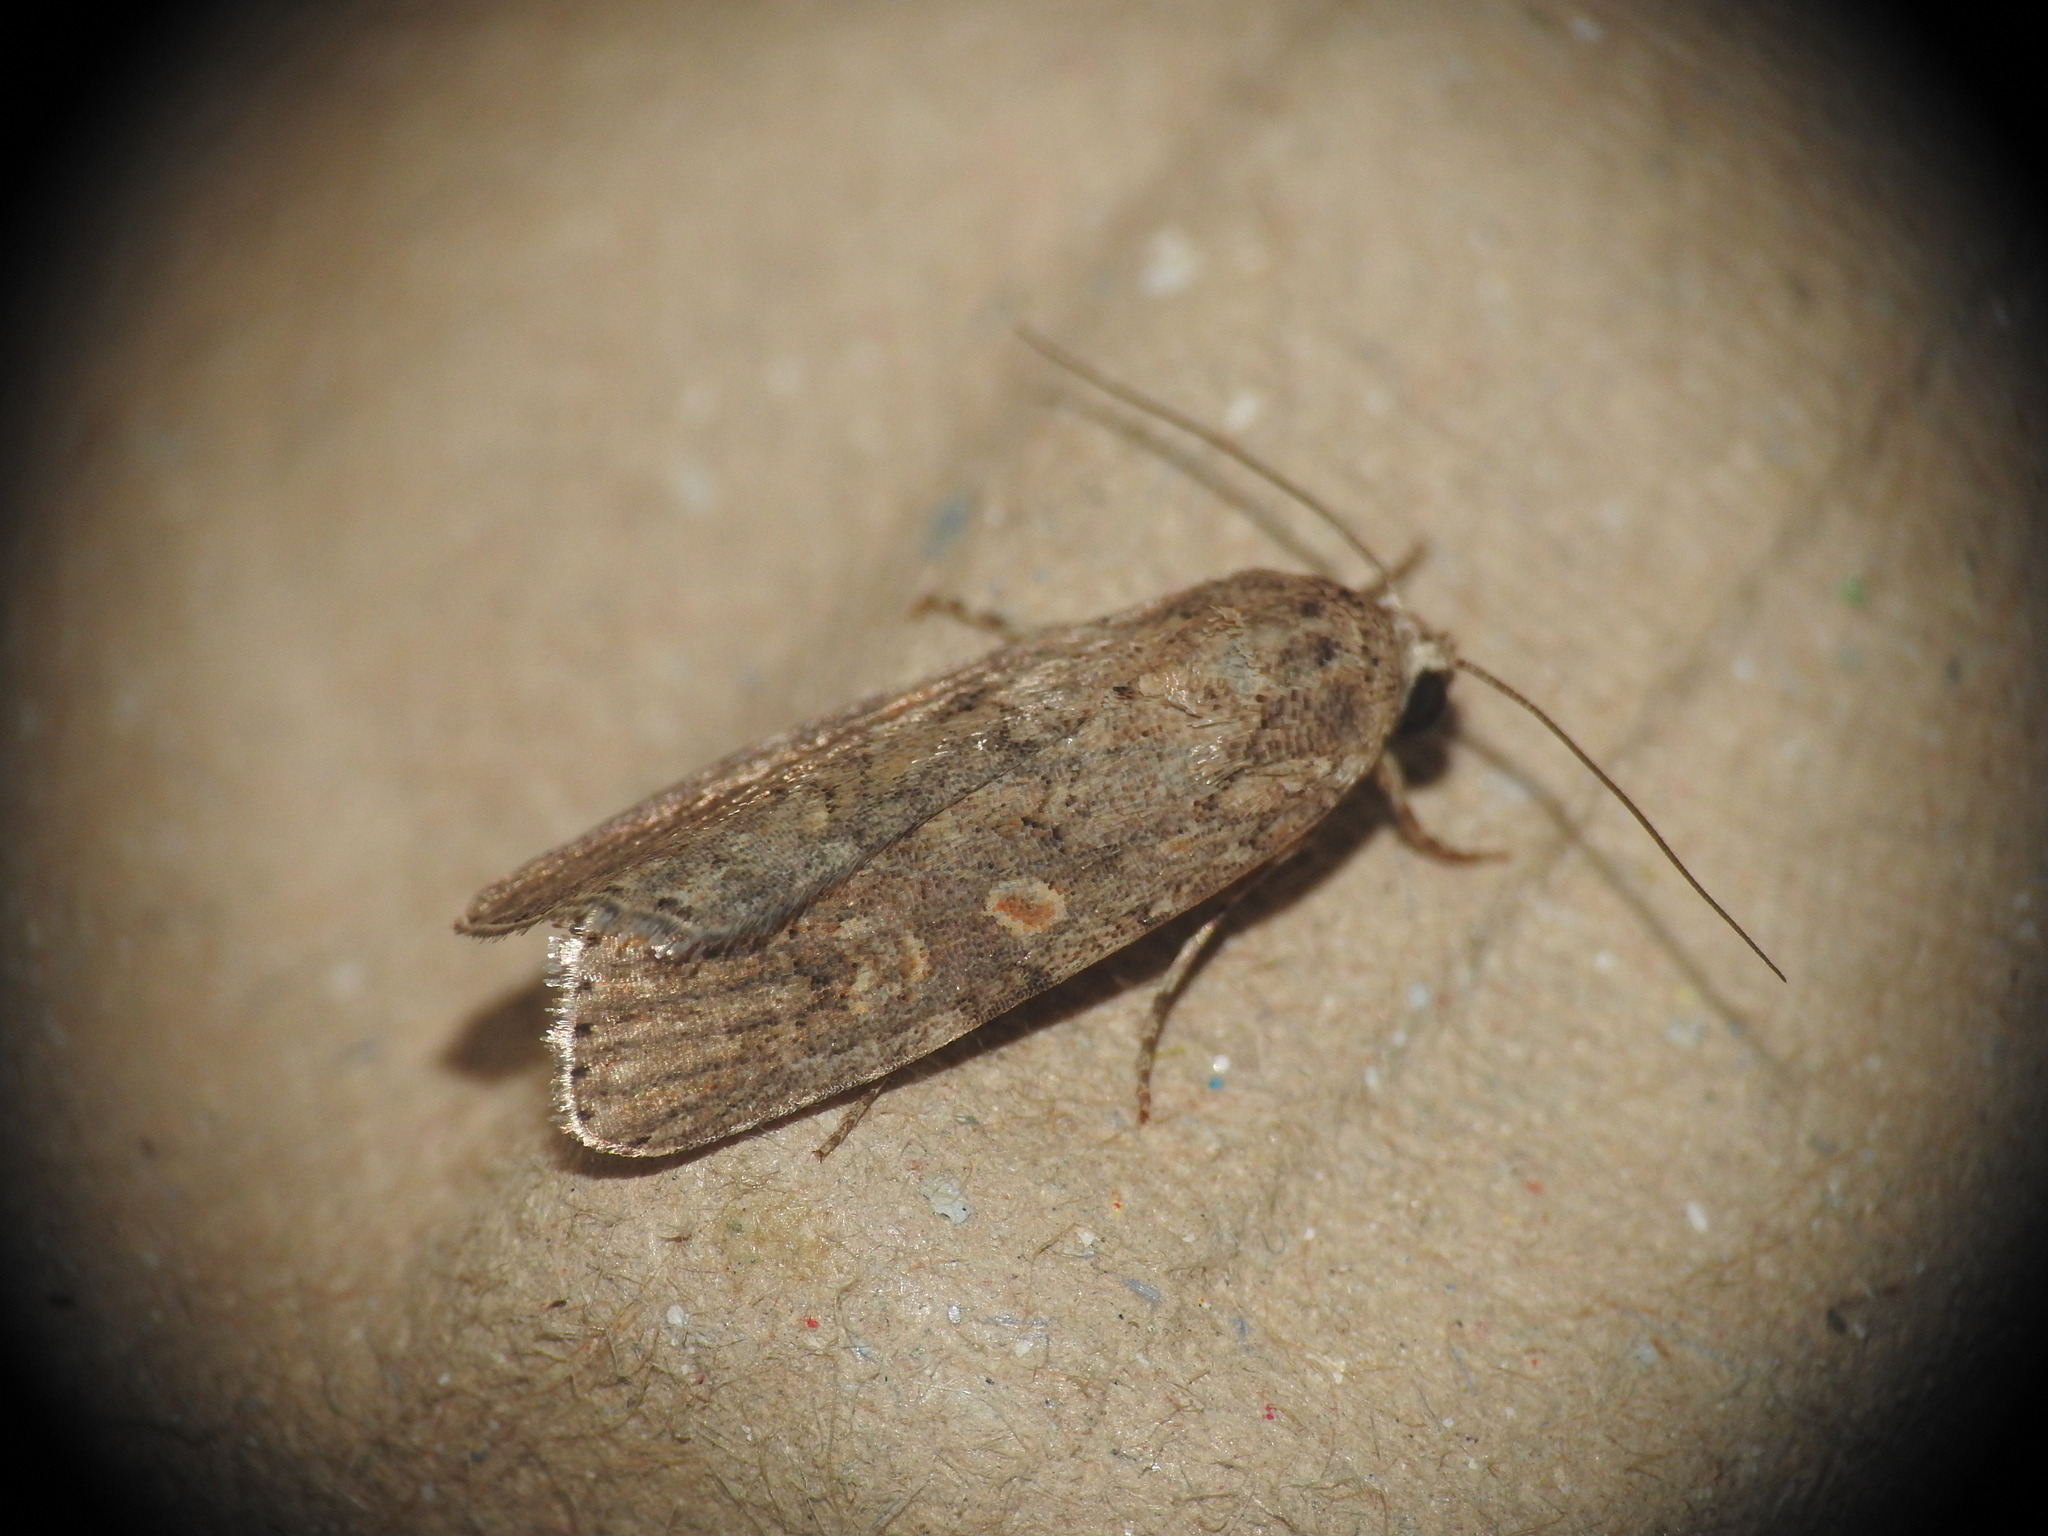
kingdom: Animalia
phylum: Arthropoda
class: Insecta
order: Lepidoptera
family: Noctuidae
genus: Spodoptera
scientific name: Spodoptera exigua
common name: Beet armyworm
